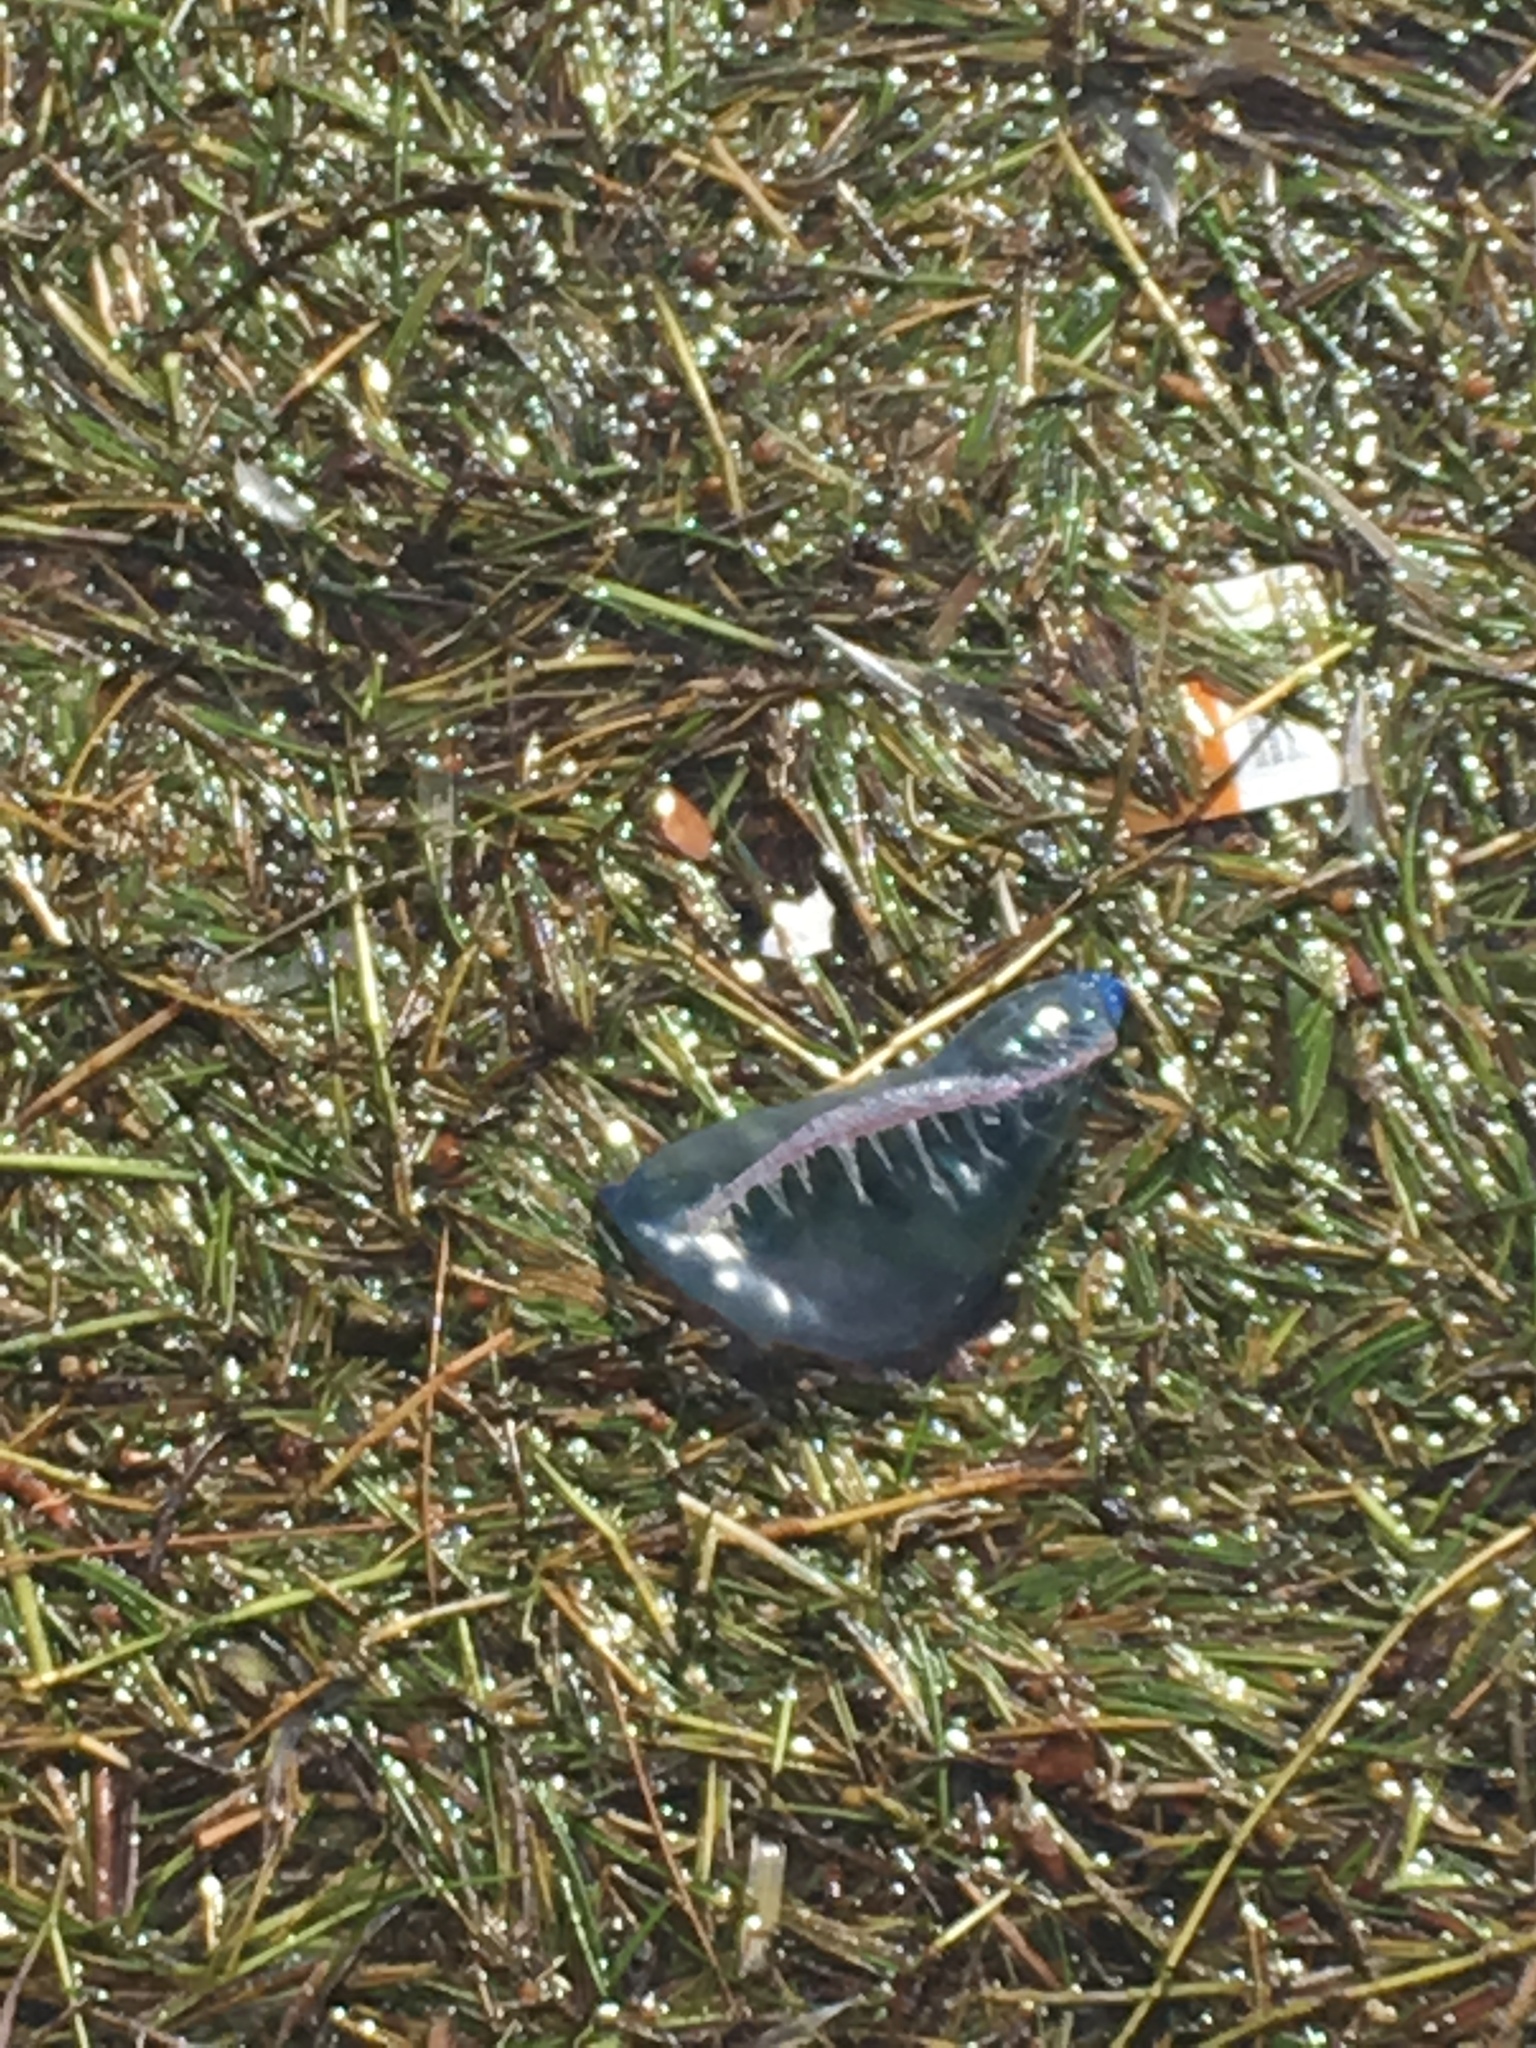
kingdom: Animalia
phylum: Cnidaria
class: Hydrozoa
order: Siphonophorae
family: Physaliidae
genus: Physalia
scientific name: Physalia physalis
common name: Portuguese man-of-war
